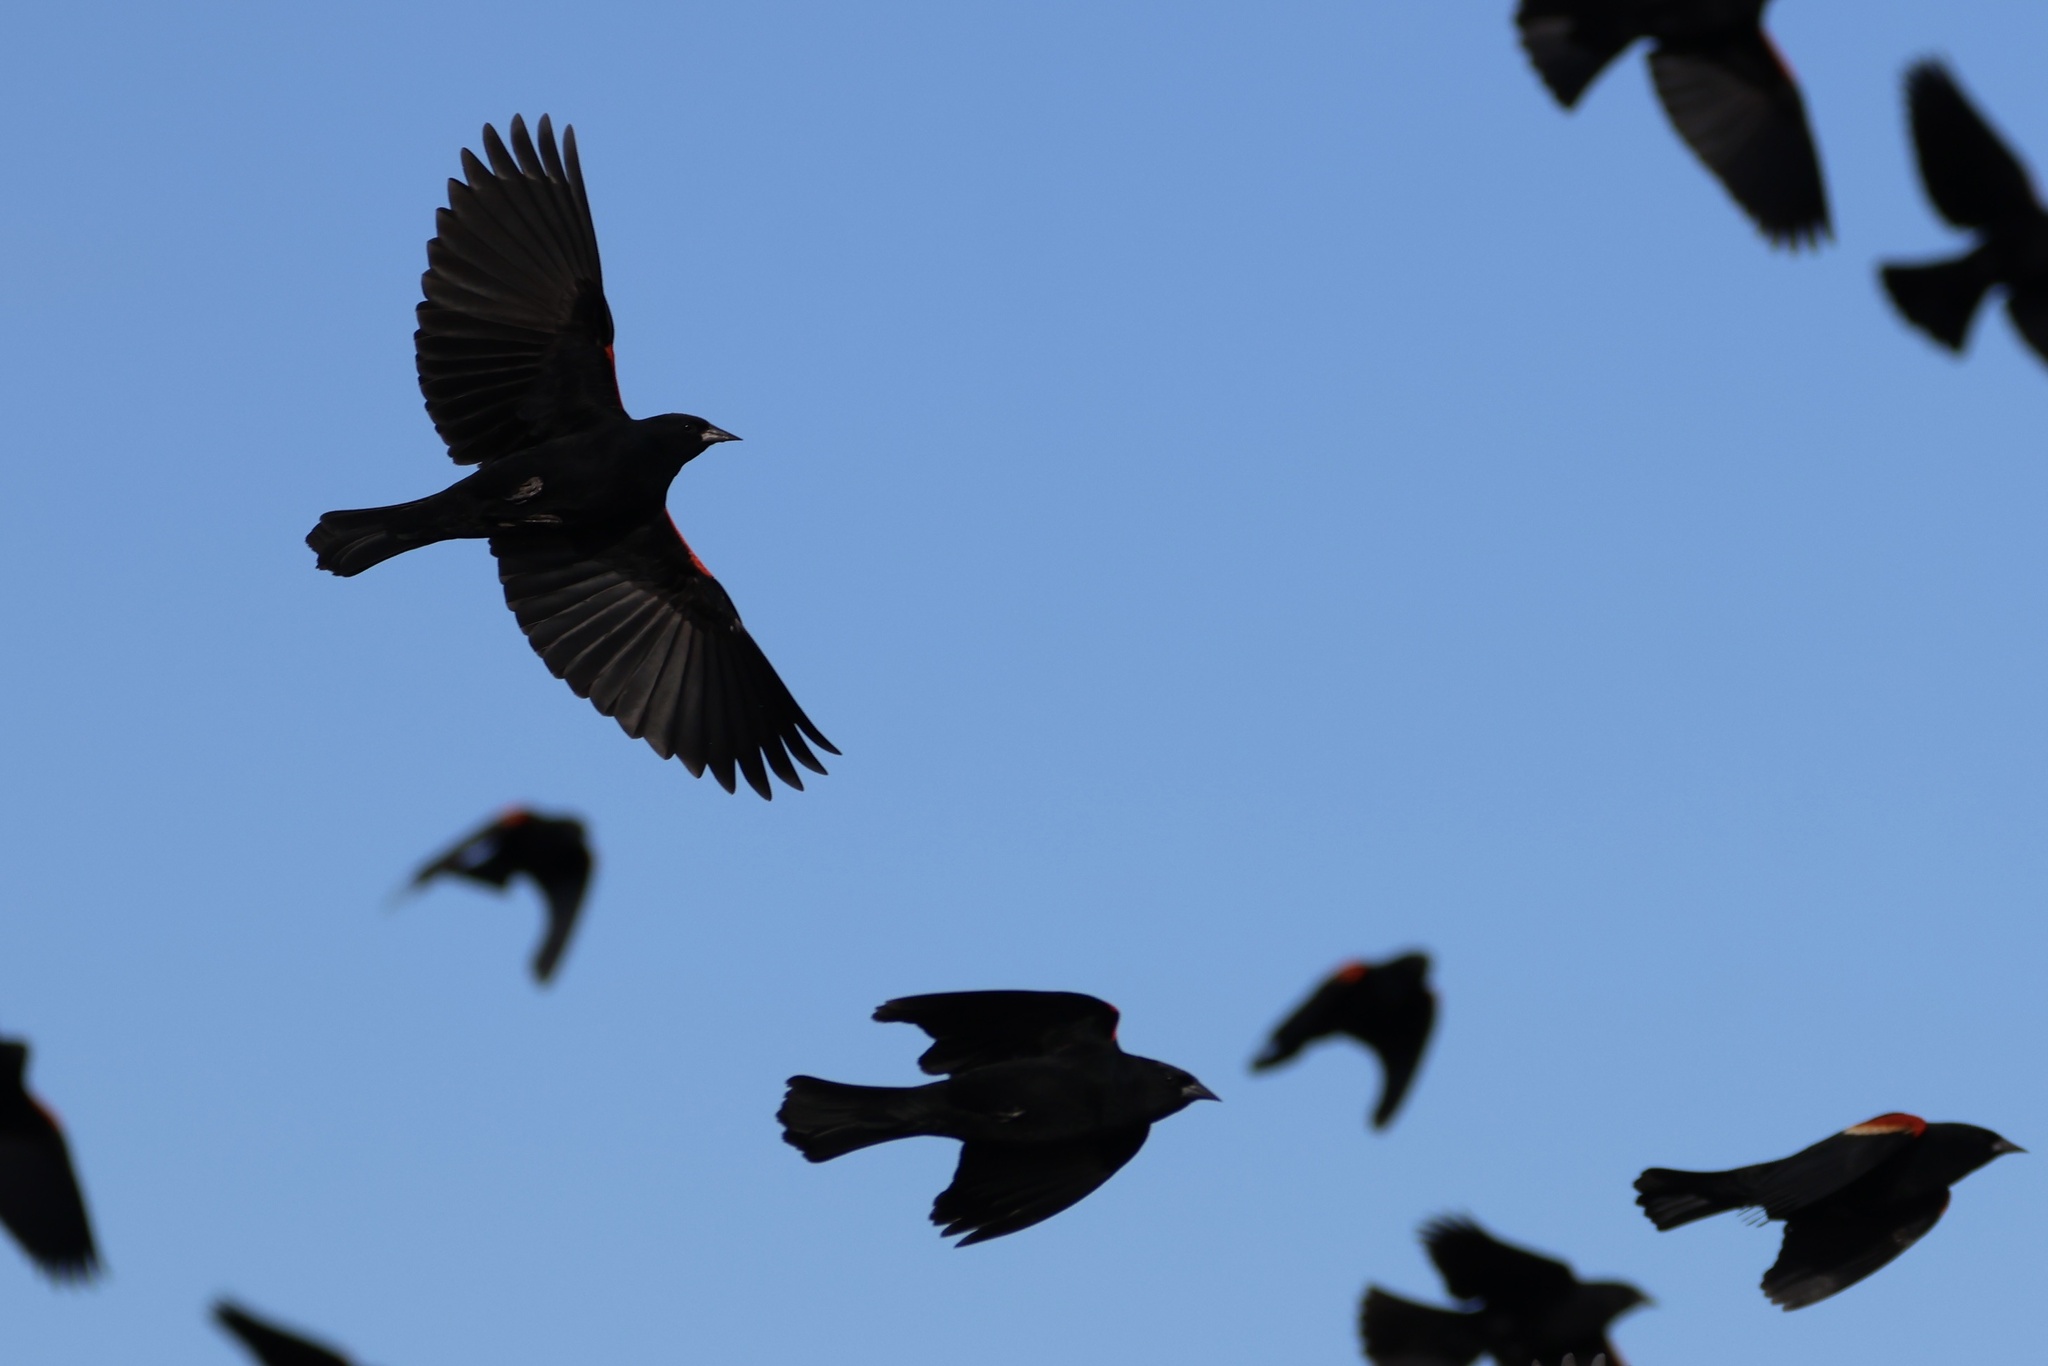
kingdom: Animalia
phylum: Chordata
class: Aves
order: Passeriformes
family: Icteridae
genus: Agelaius
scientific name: Agelaius phoeniceus
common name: Red-winged blackbird
